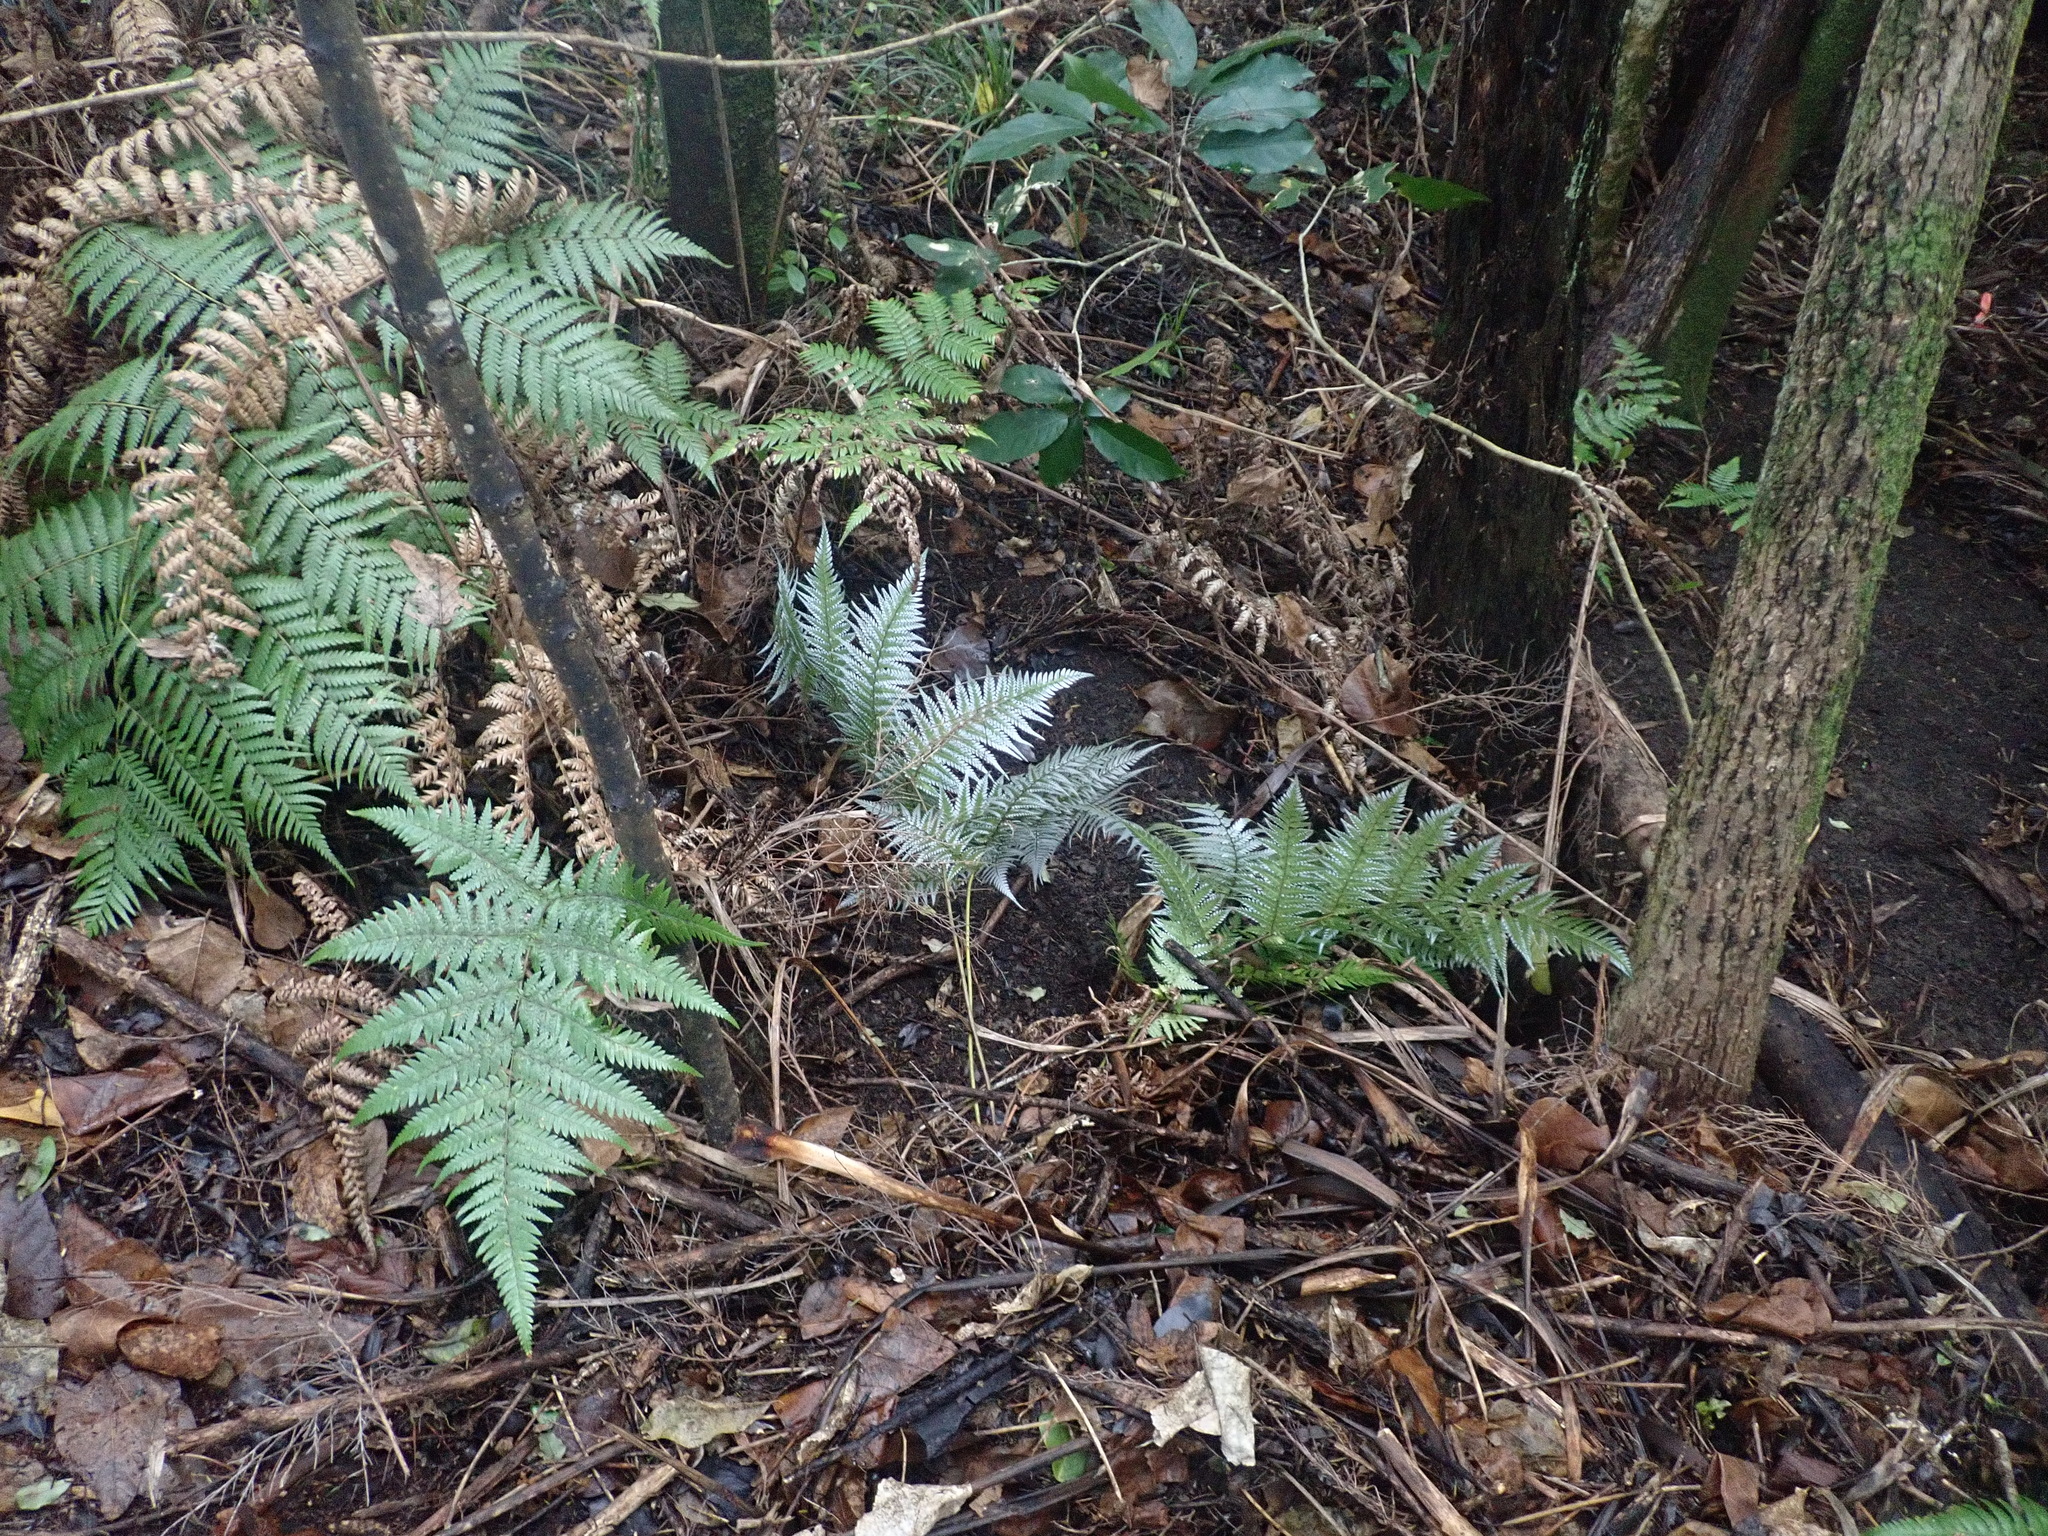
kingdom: Plantae
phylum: Tracheophyta
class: Polypodiopsida
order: Cyatheales
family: Cyatheaceae
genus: Alsophila
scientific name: Alsophila dealbata
